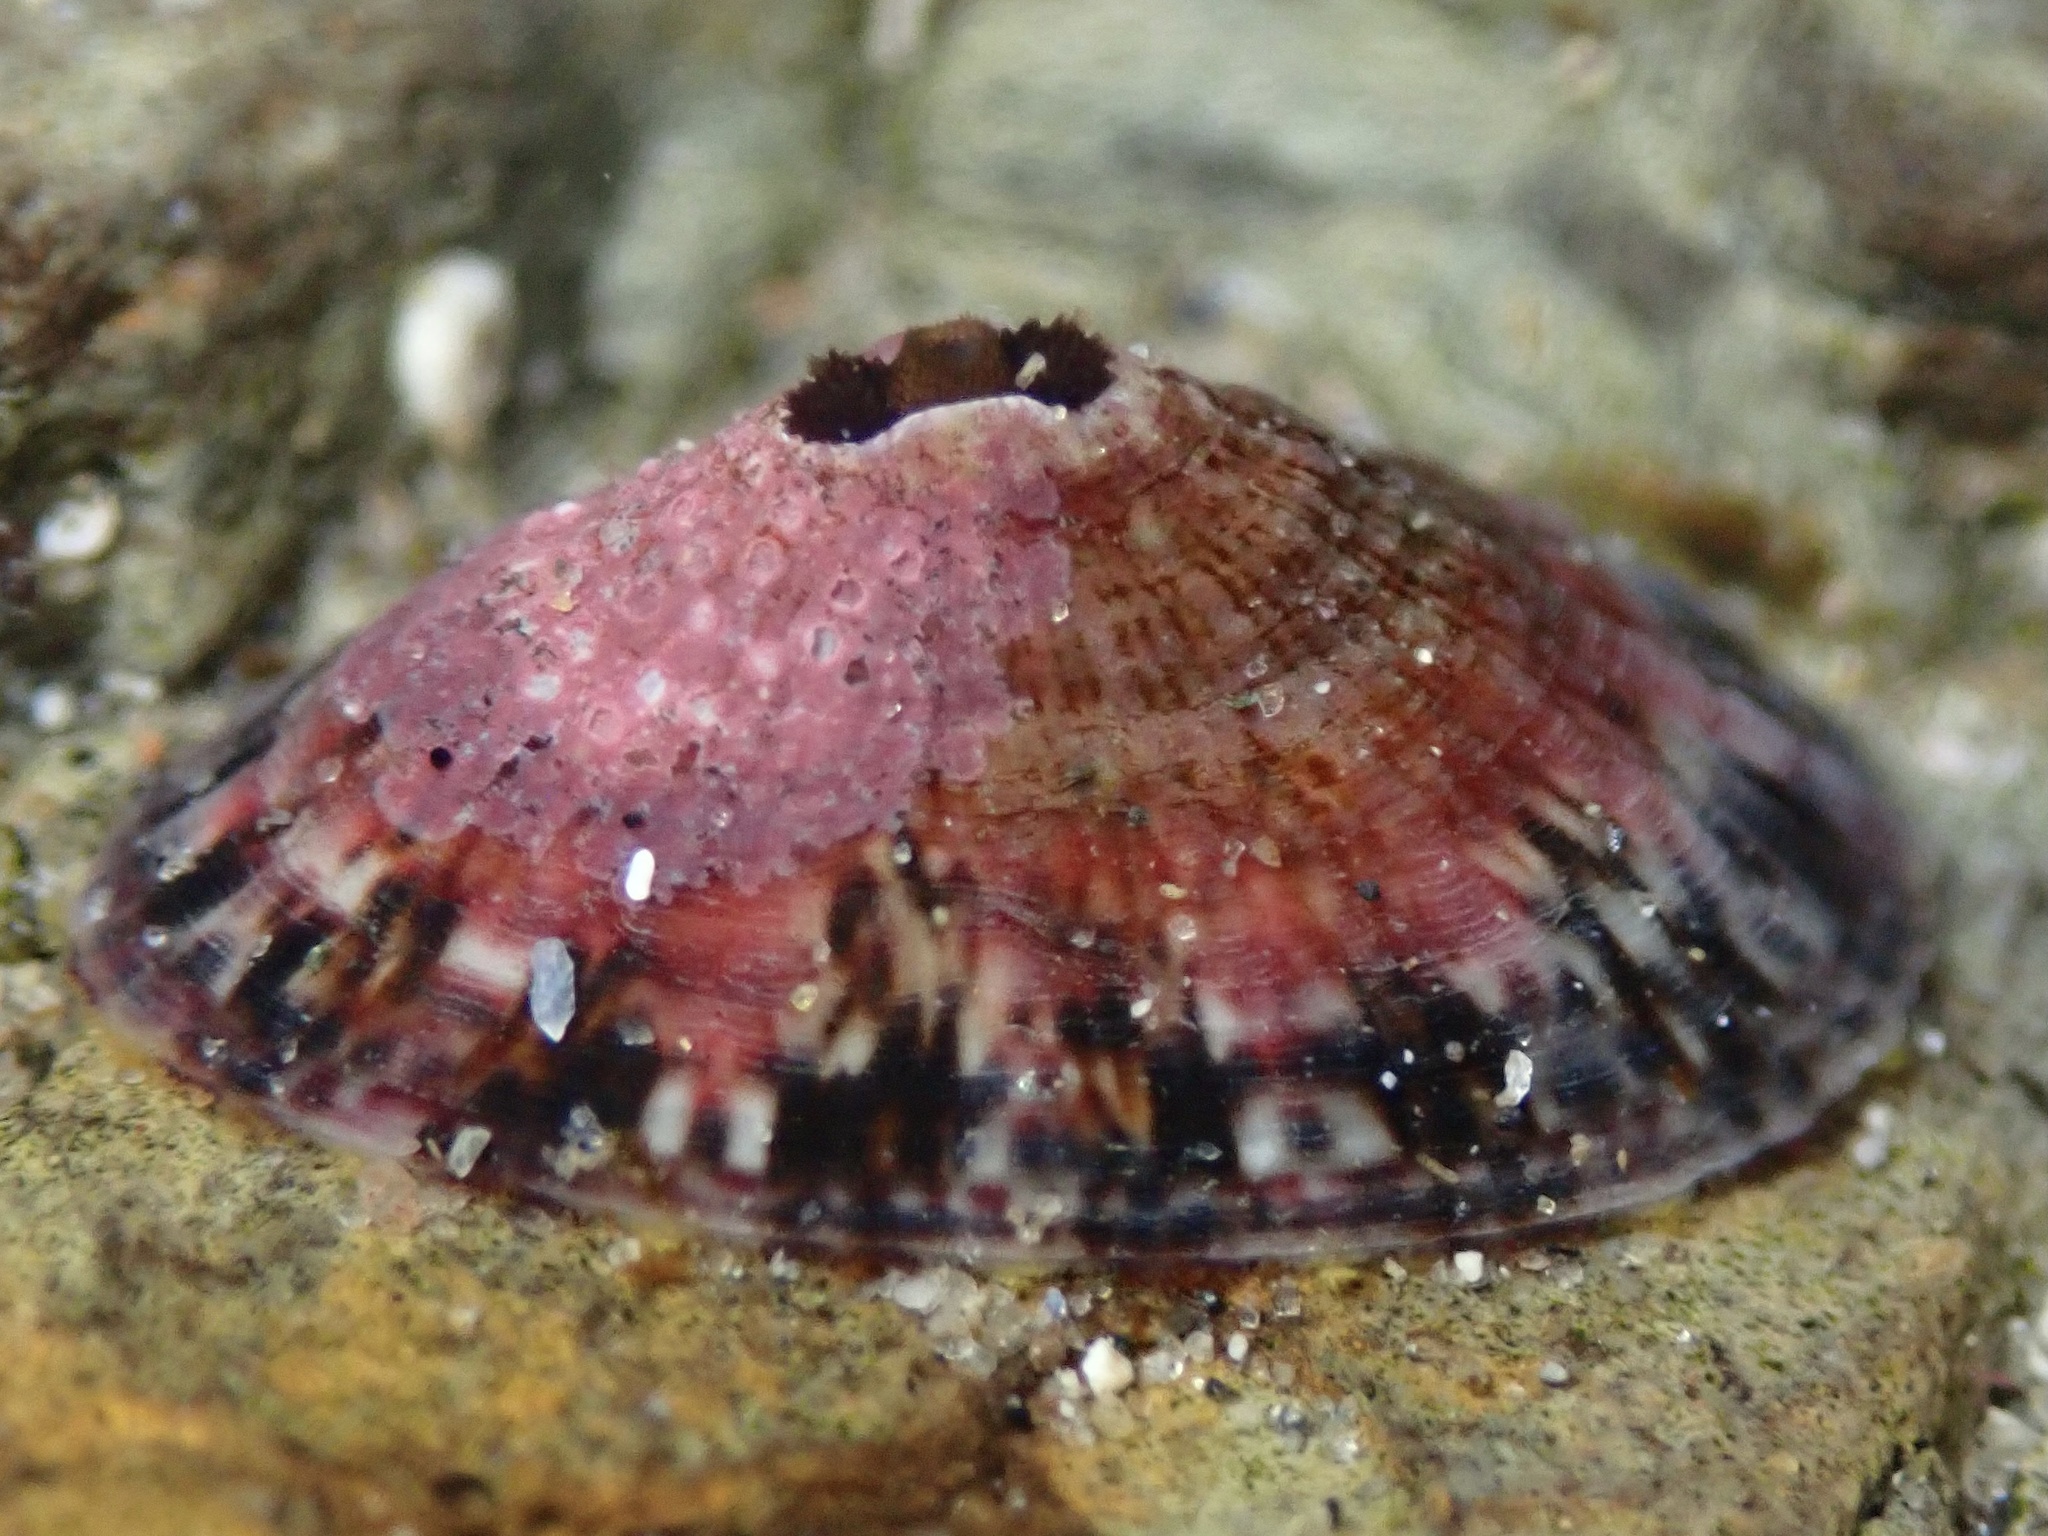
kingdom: Animalia
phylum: Mollusca
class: Gastropoda
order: Lepetellida
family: Fissurellidae
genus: Fissurella
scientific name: Fissurella volcano
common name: Volcano keyhole limpet
